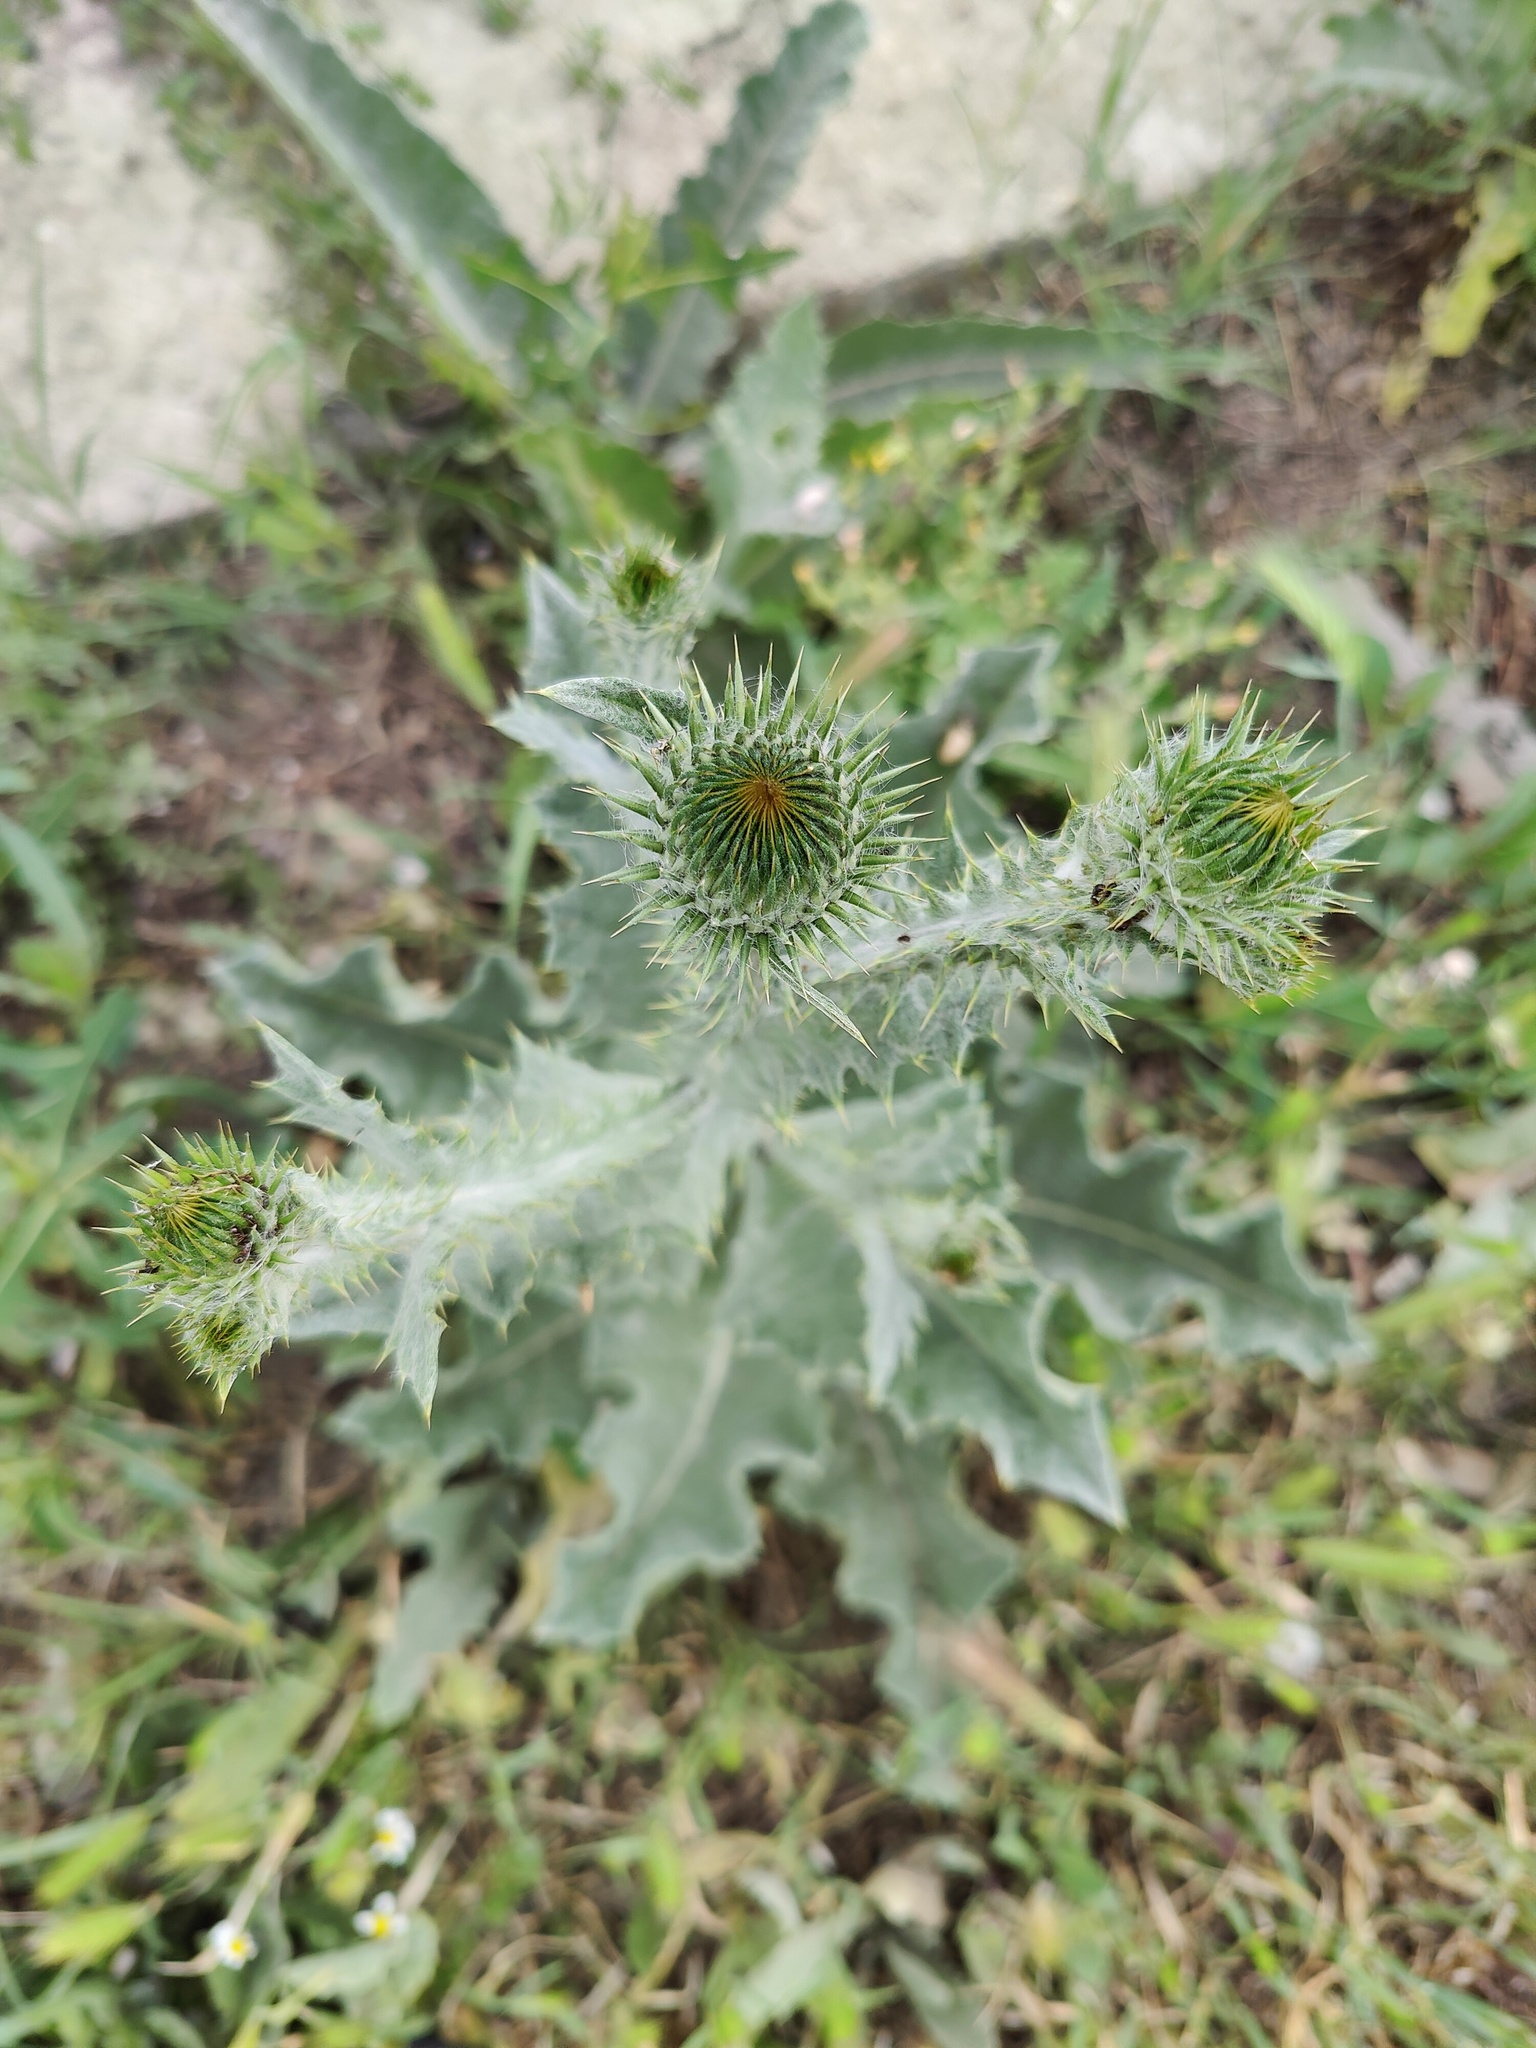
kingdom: Plantae
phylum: Tracheophyta
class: Magnoliopsida
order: Asterales
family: Asteraceae
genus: Onopordum
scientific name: Onopordum acanthium
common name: Scotch thistle
